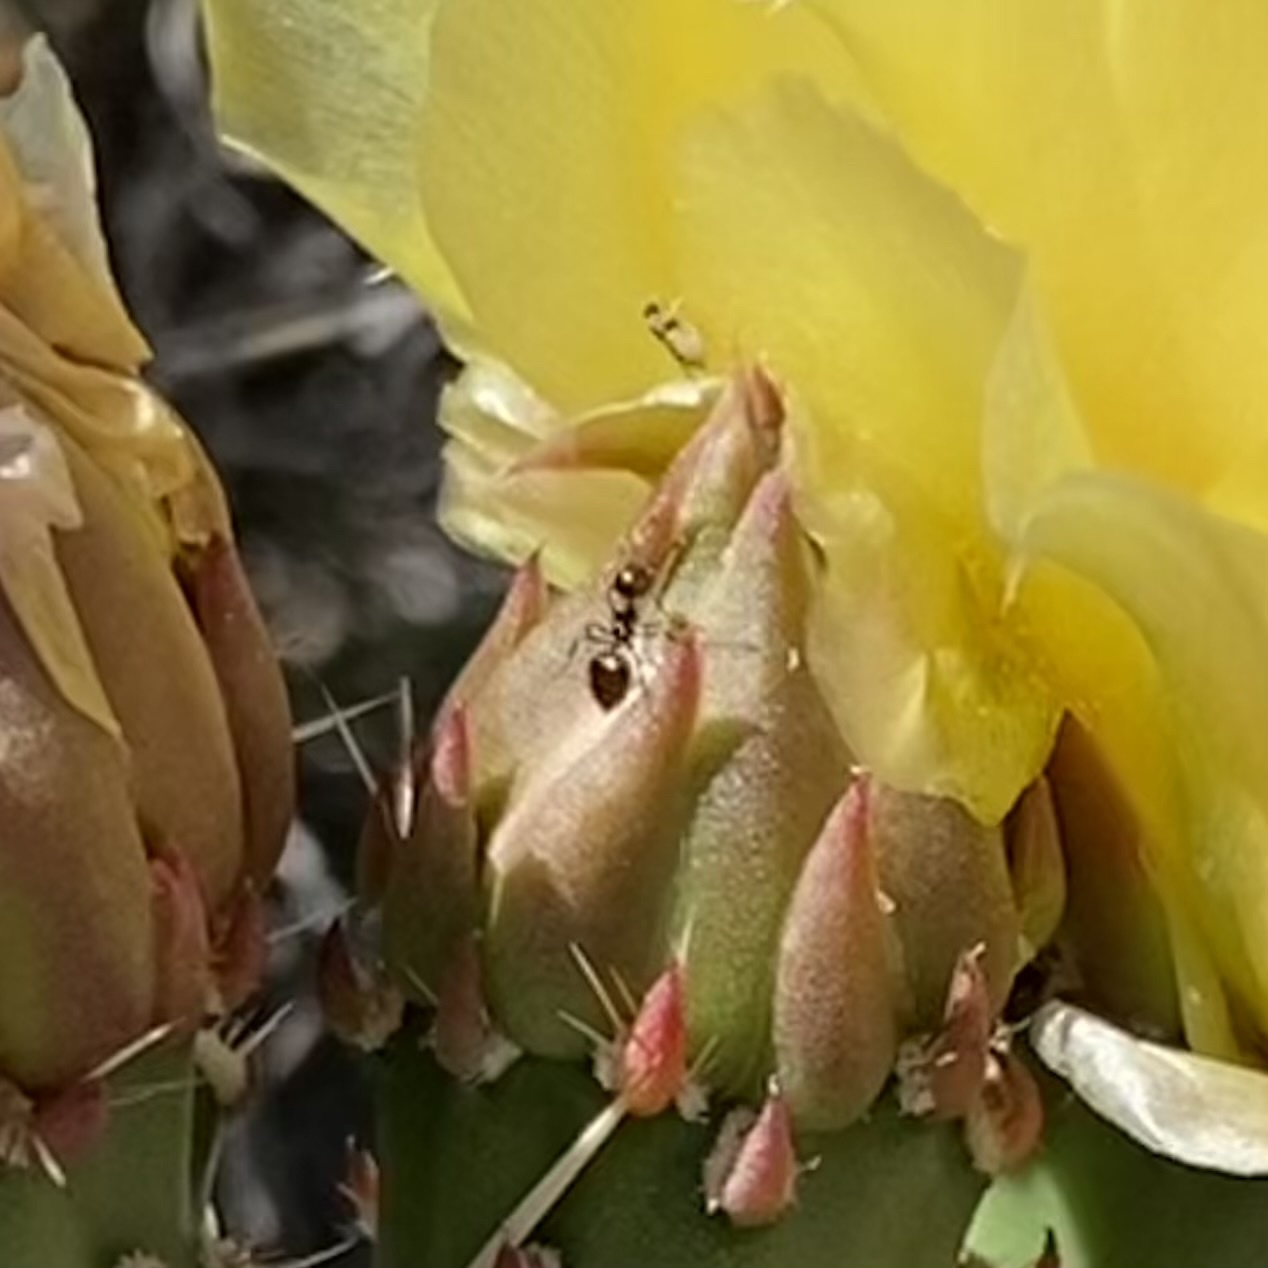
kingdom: Animalia
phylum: Arthropoda
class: Insecta
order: Hymenoptera
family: Formicidae
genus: Crematogaster
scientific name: Crematogaster
